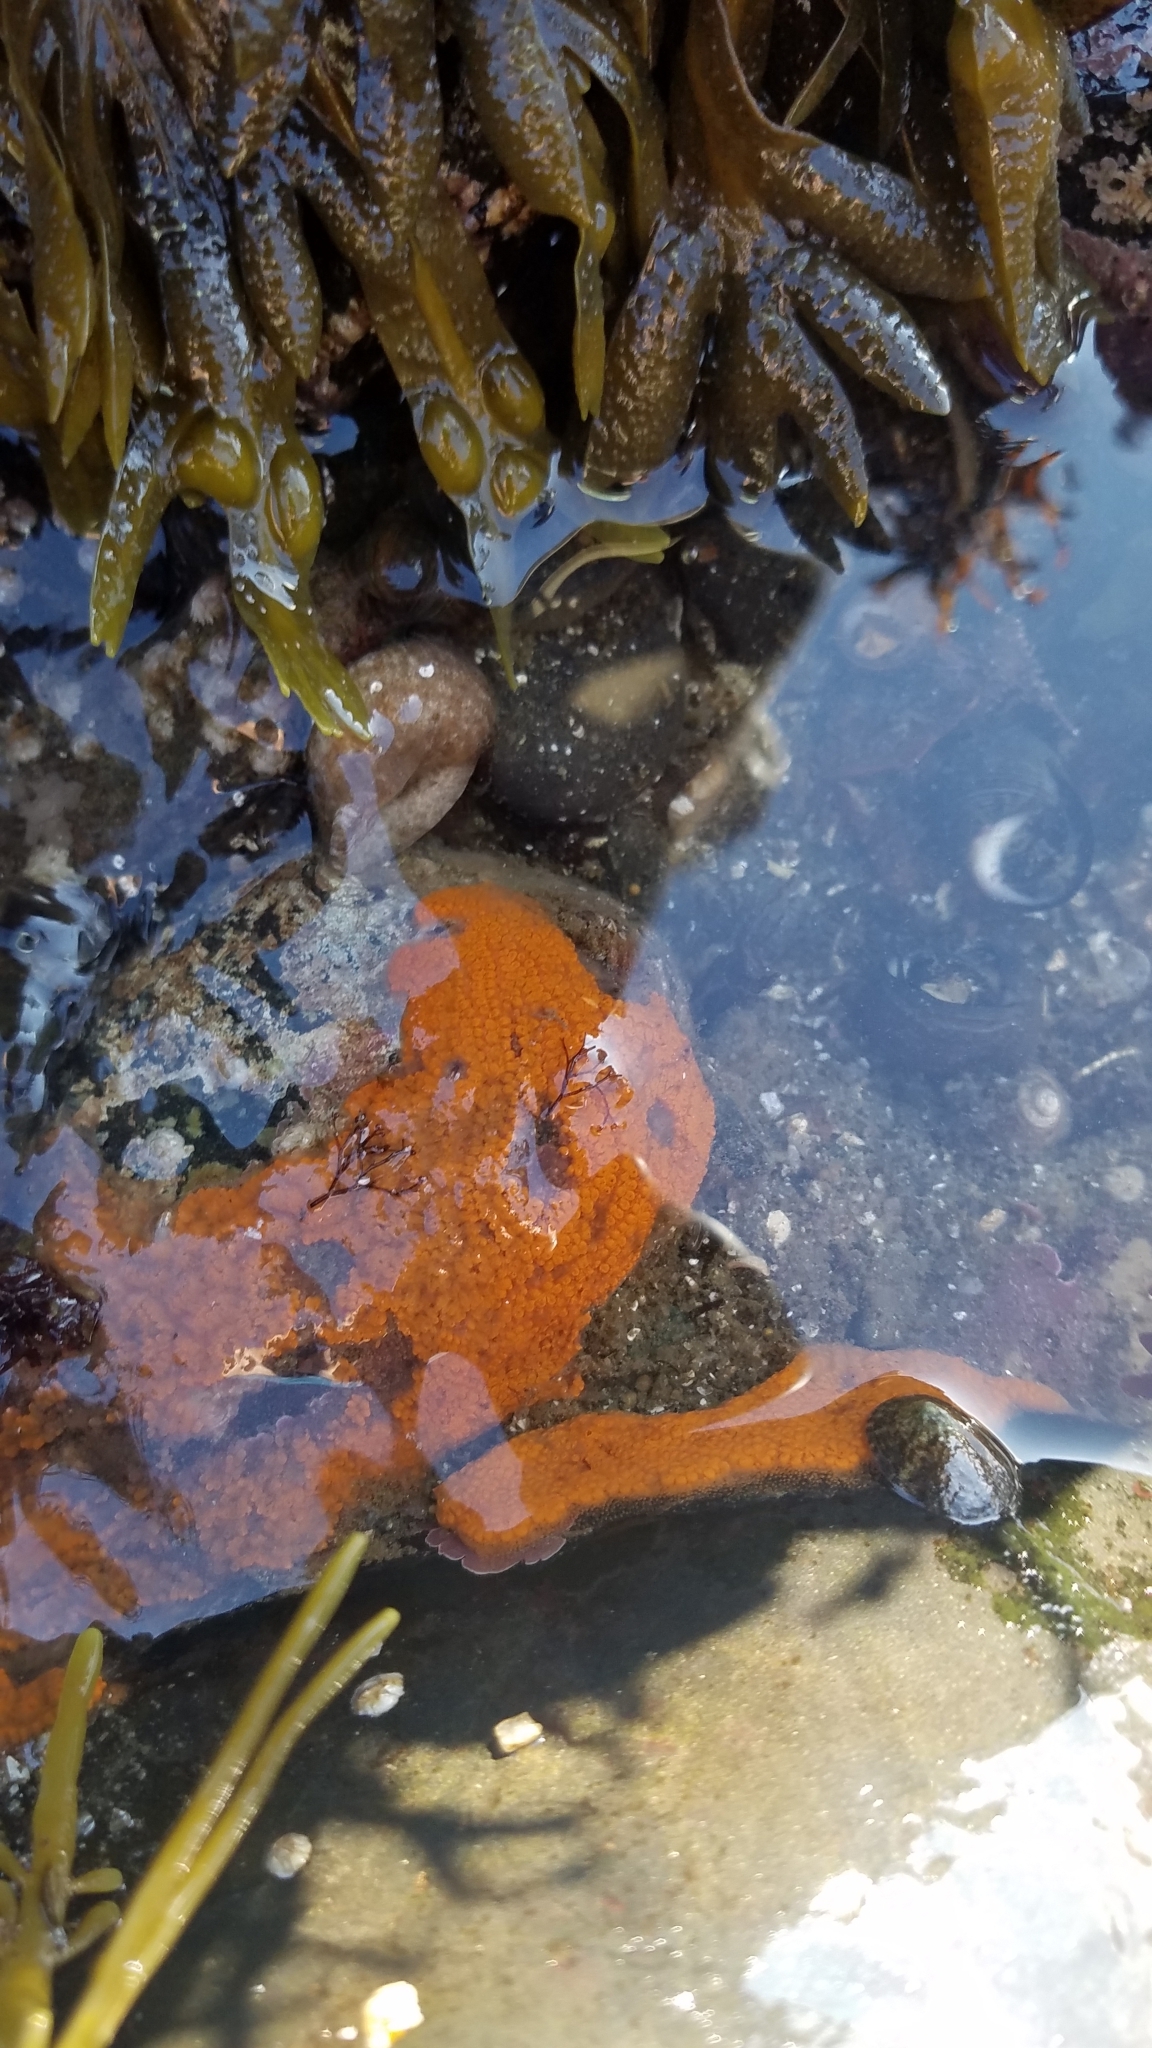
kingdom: Animalia
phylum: Chordata
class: Ascidiacea
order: Stolidobranchia
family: Styelidae
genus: Botrylloides
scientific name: Botrylloides violaceus
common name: Colonial sea squirt
